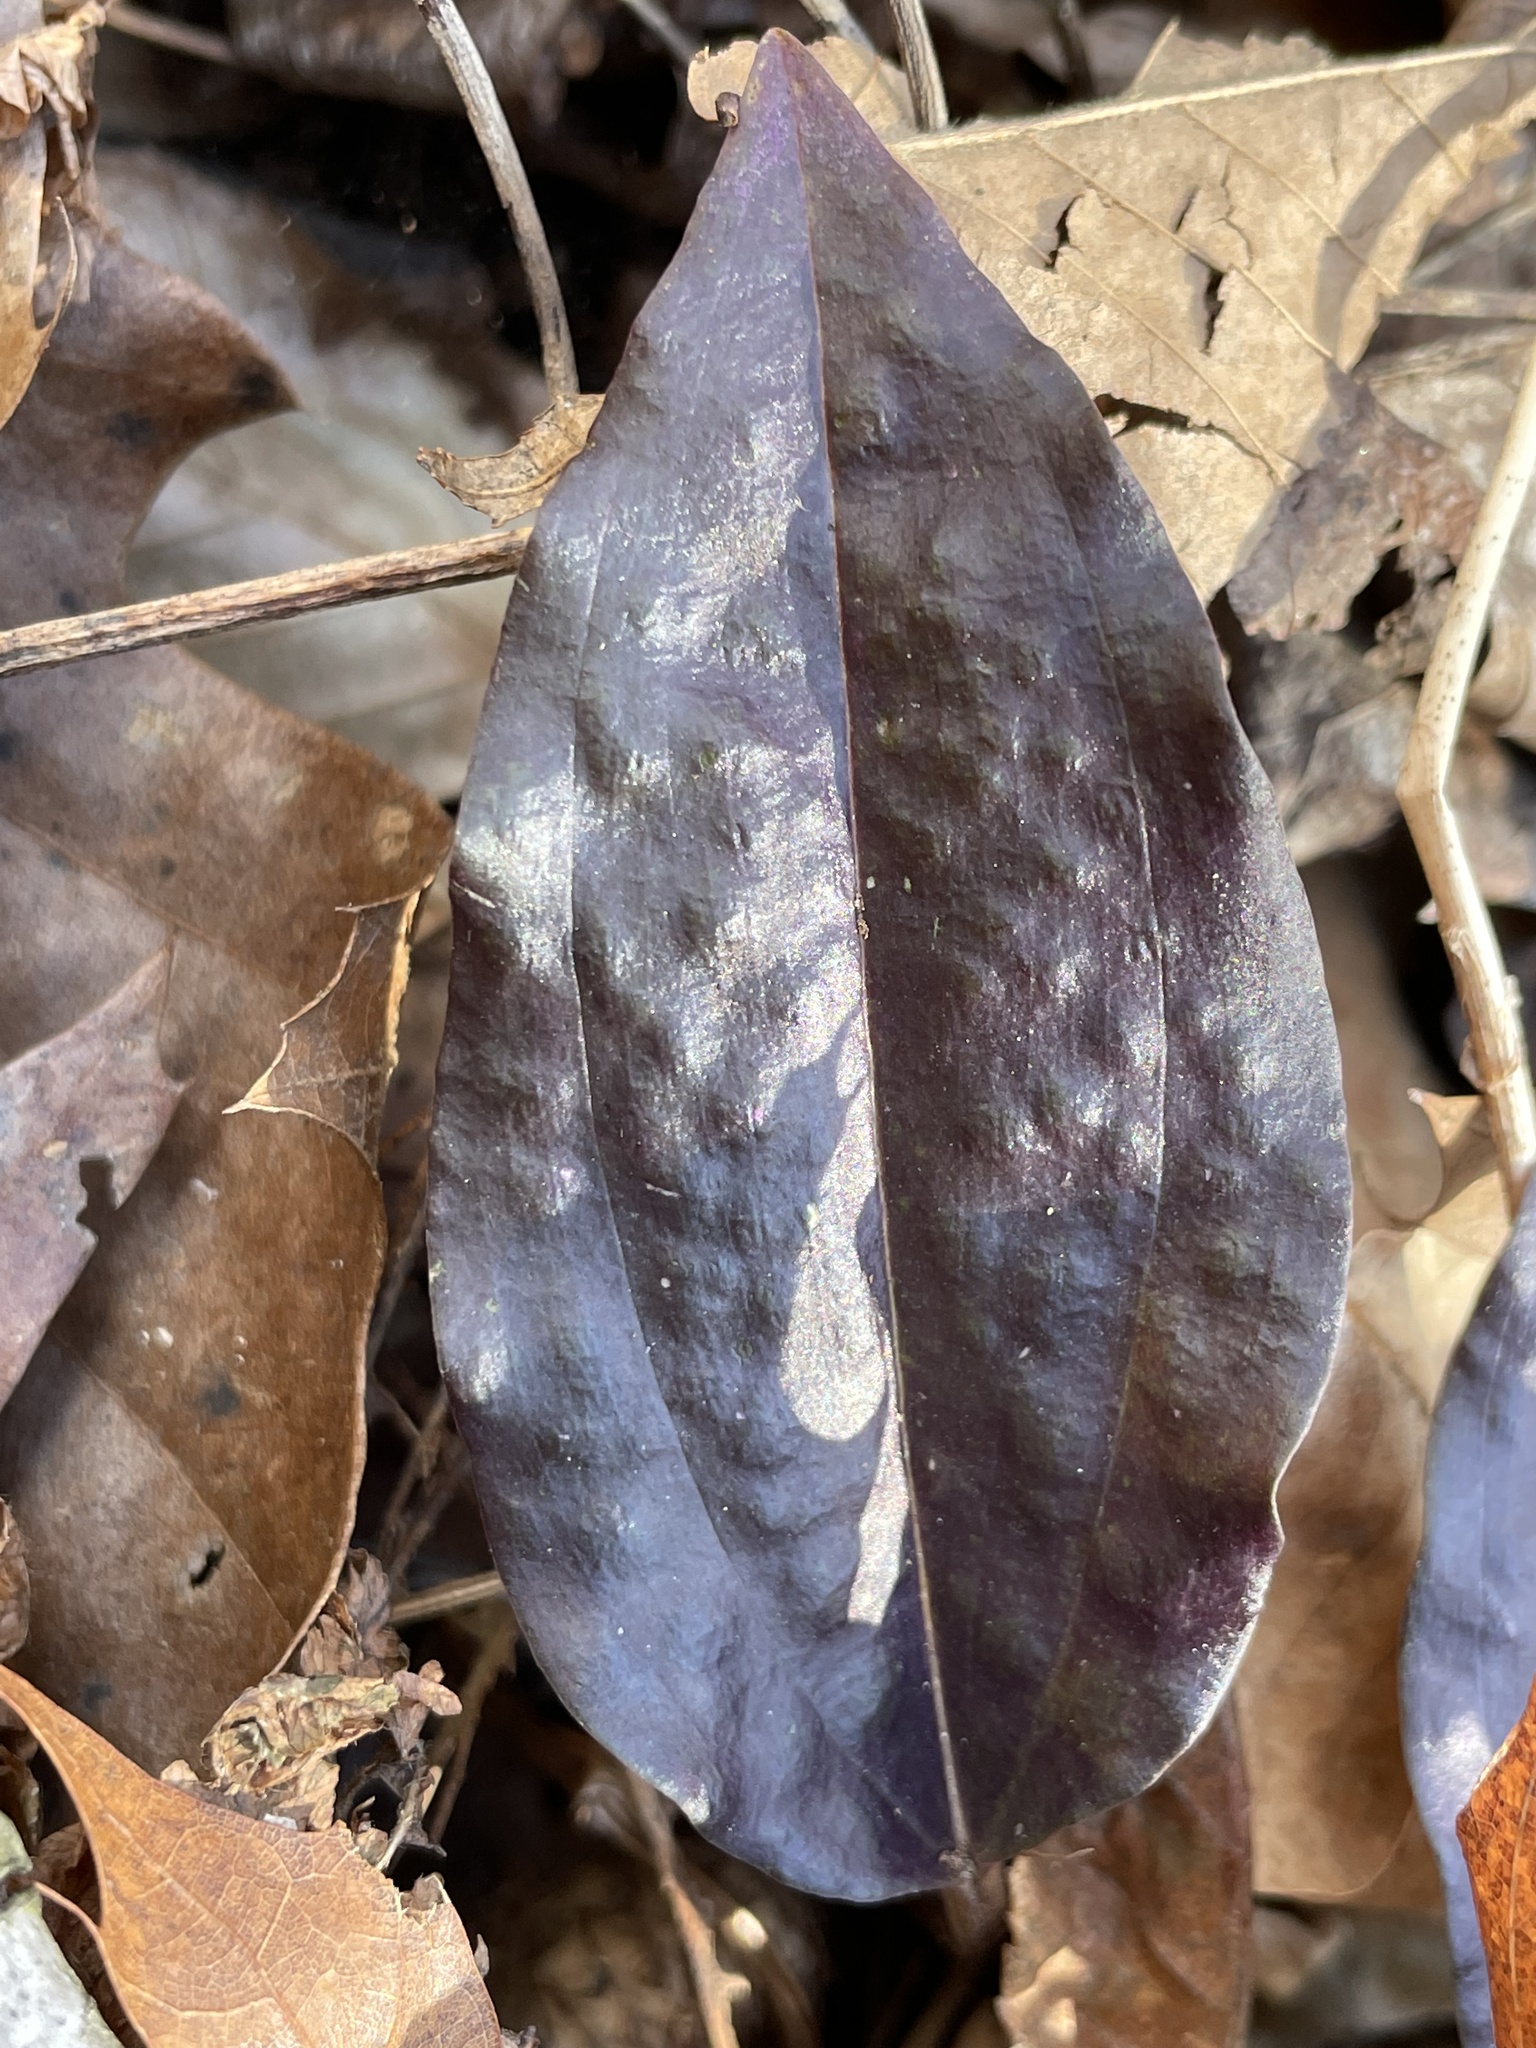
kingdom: Plantae
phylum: Tracheophyta
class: Liliopsida
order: Asparagales
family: Orchidaceae
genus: Tipularia
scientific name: Tipularia discolor
